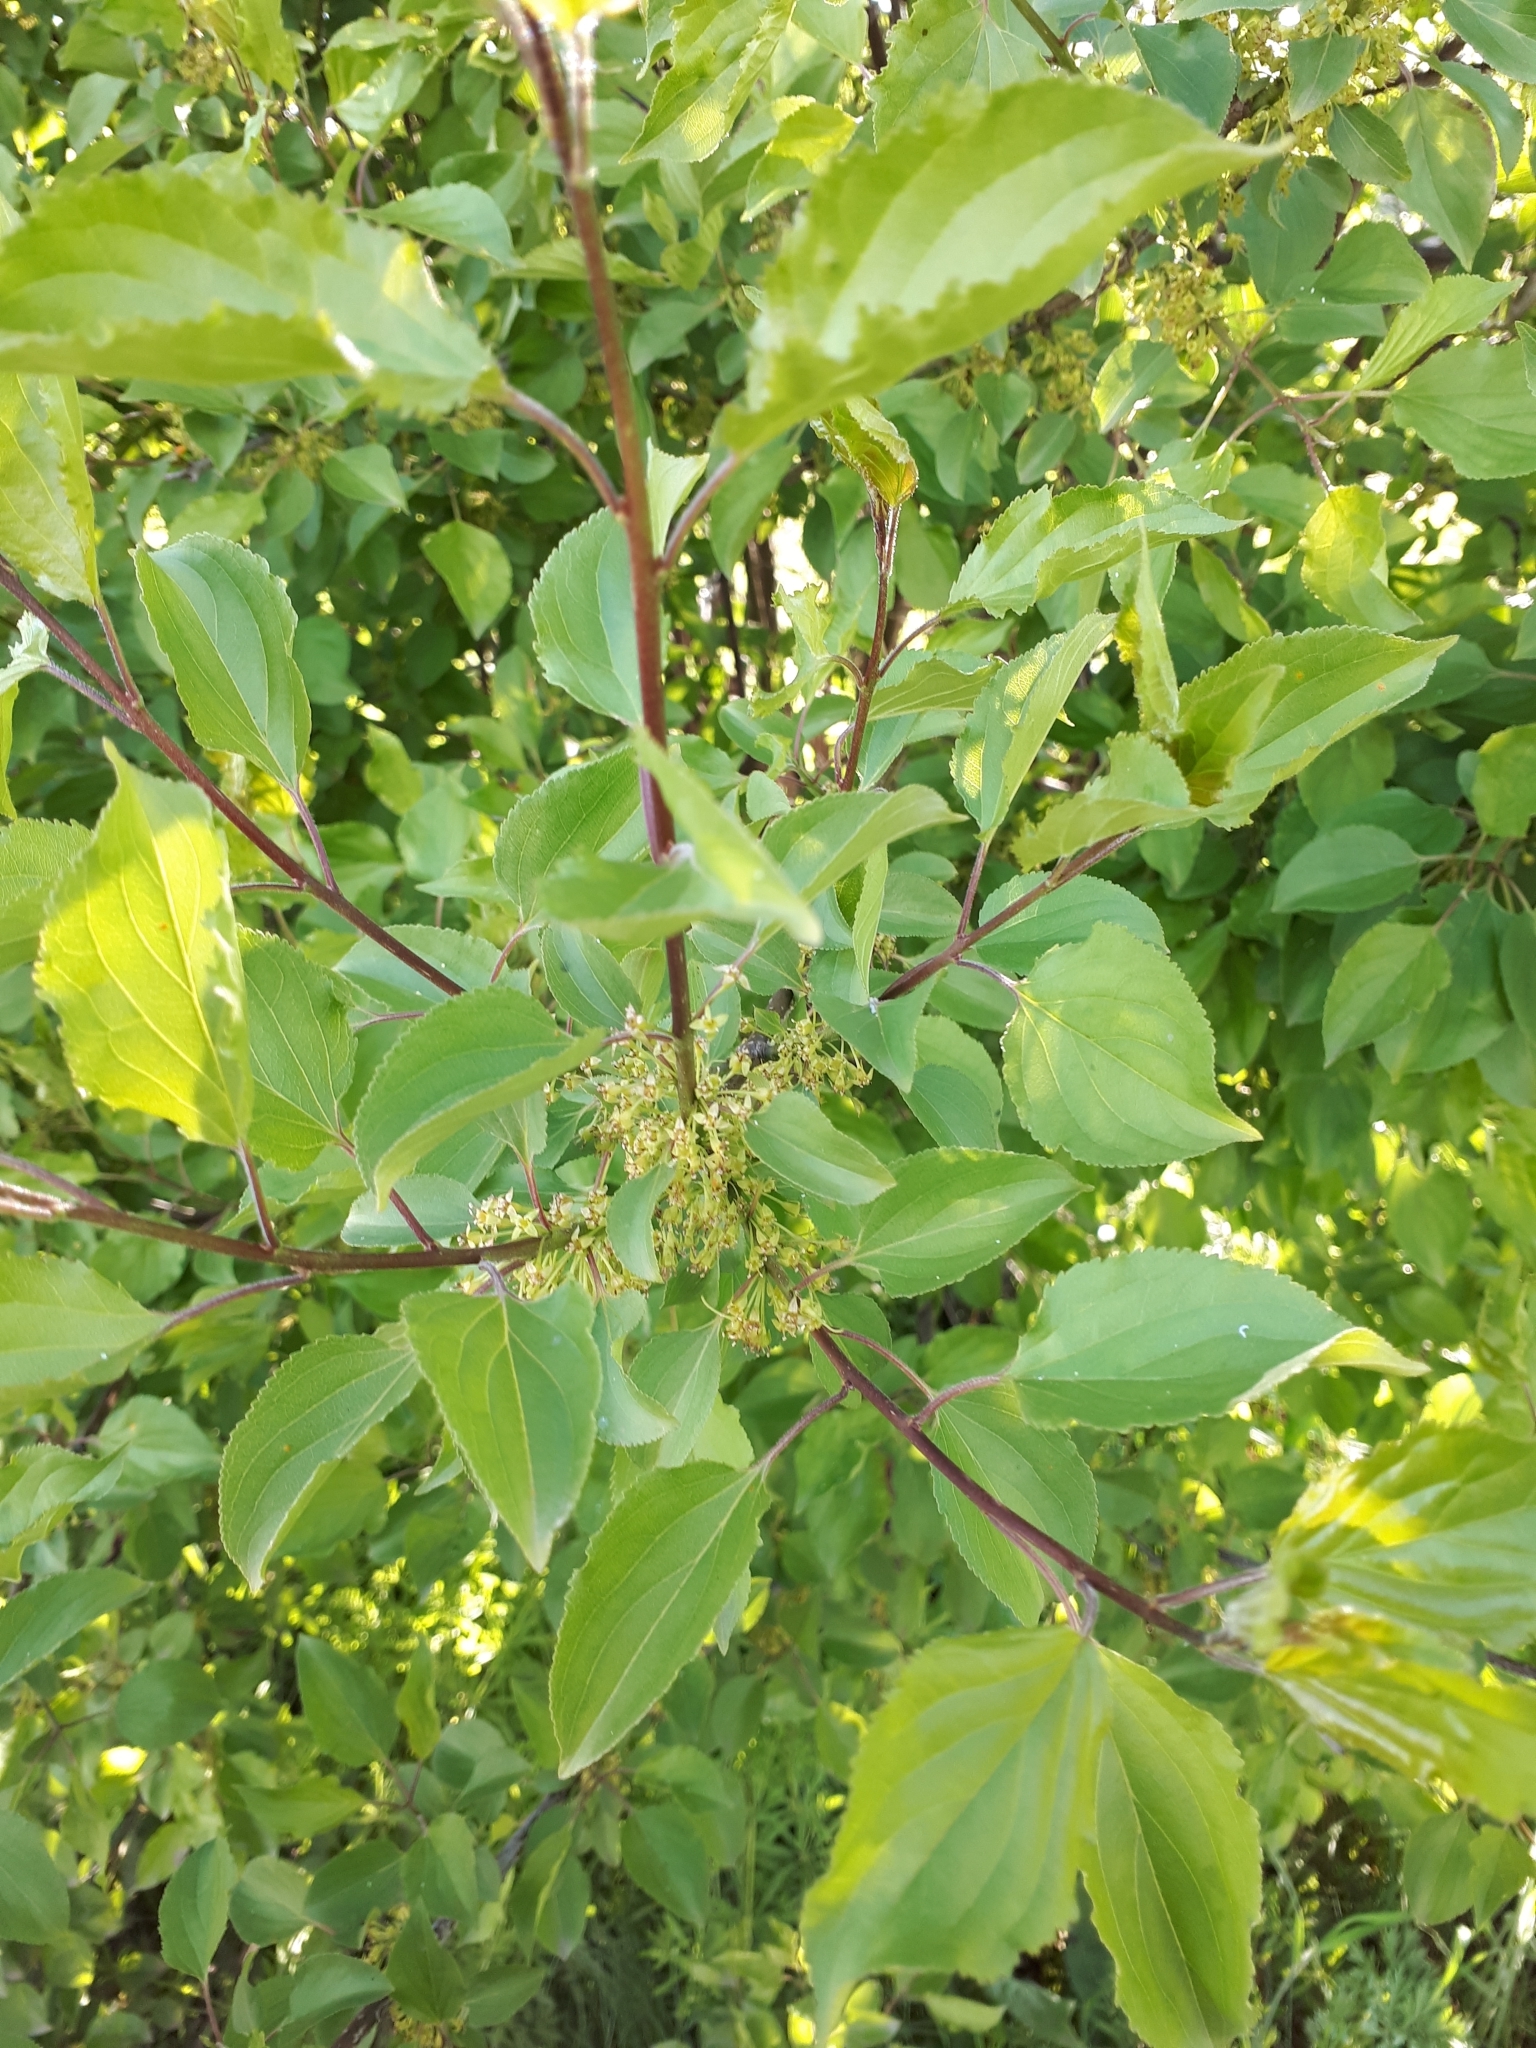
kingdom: Plantae
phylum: Tracheophyta
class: Magnoliopsida
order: Rosales
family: Rhamnaceae
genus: Rhamnus
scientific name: Rhamnus cathartica
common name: Common buckthorn
